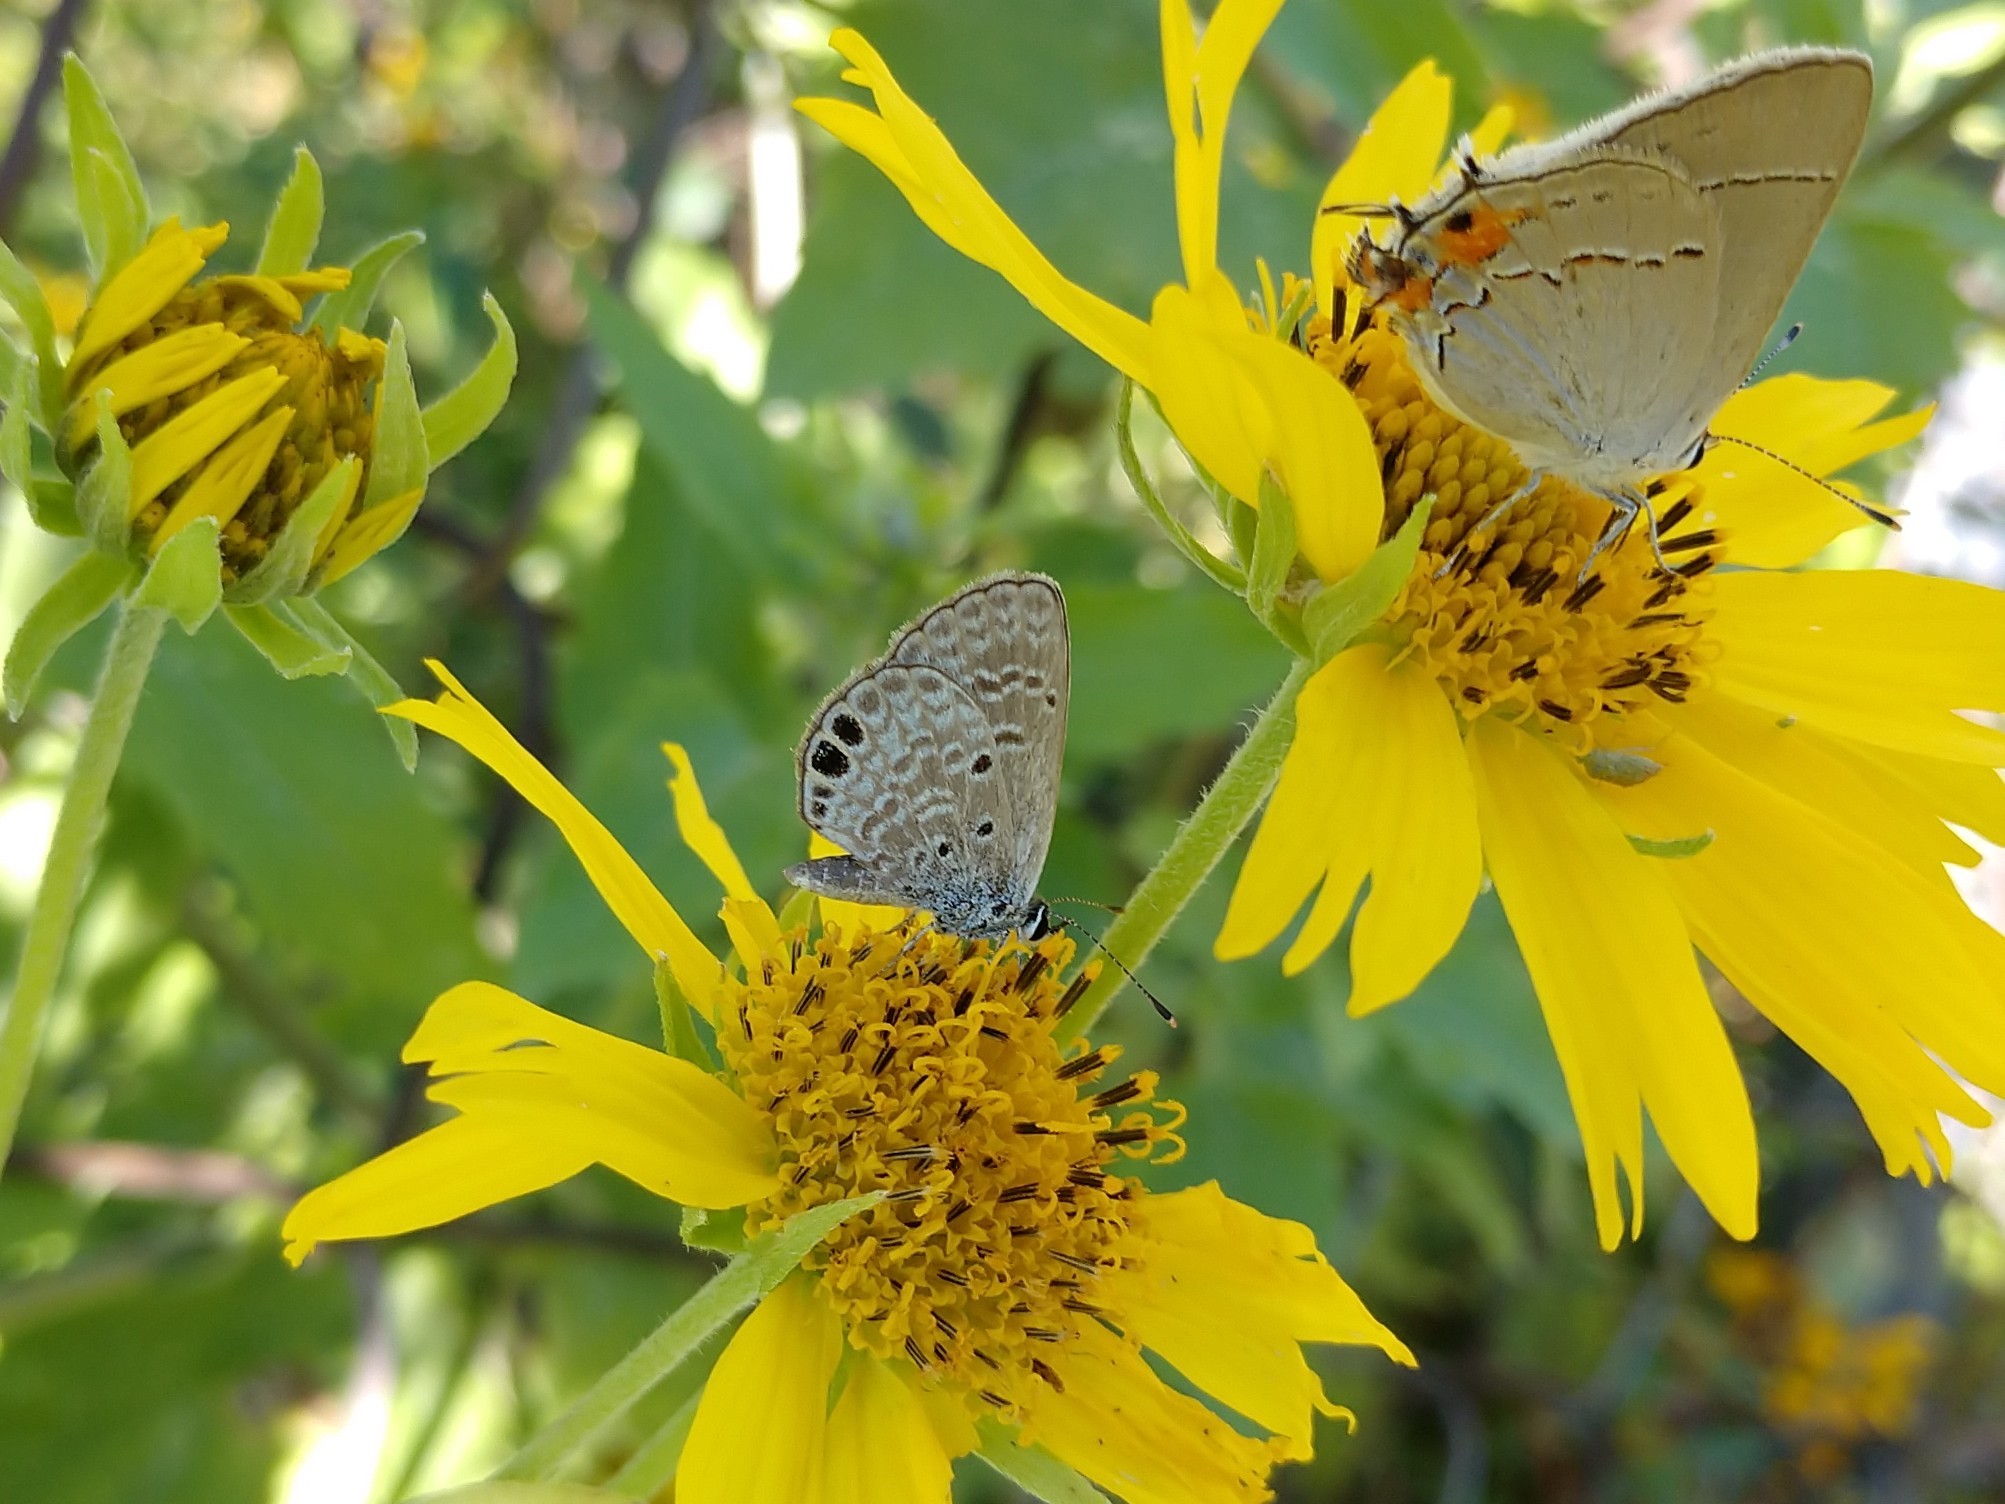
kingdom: Animalia
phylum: Arthropoda
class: Insecta
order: Lepidoptera
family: Lycaenidae
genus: Hemiargus
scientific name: Hemiargus ceraunus
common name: Ceraunus blue
